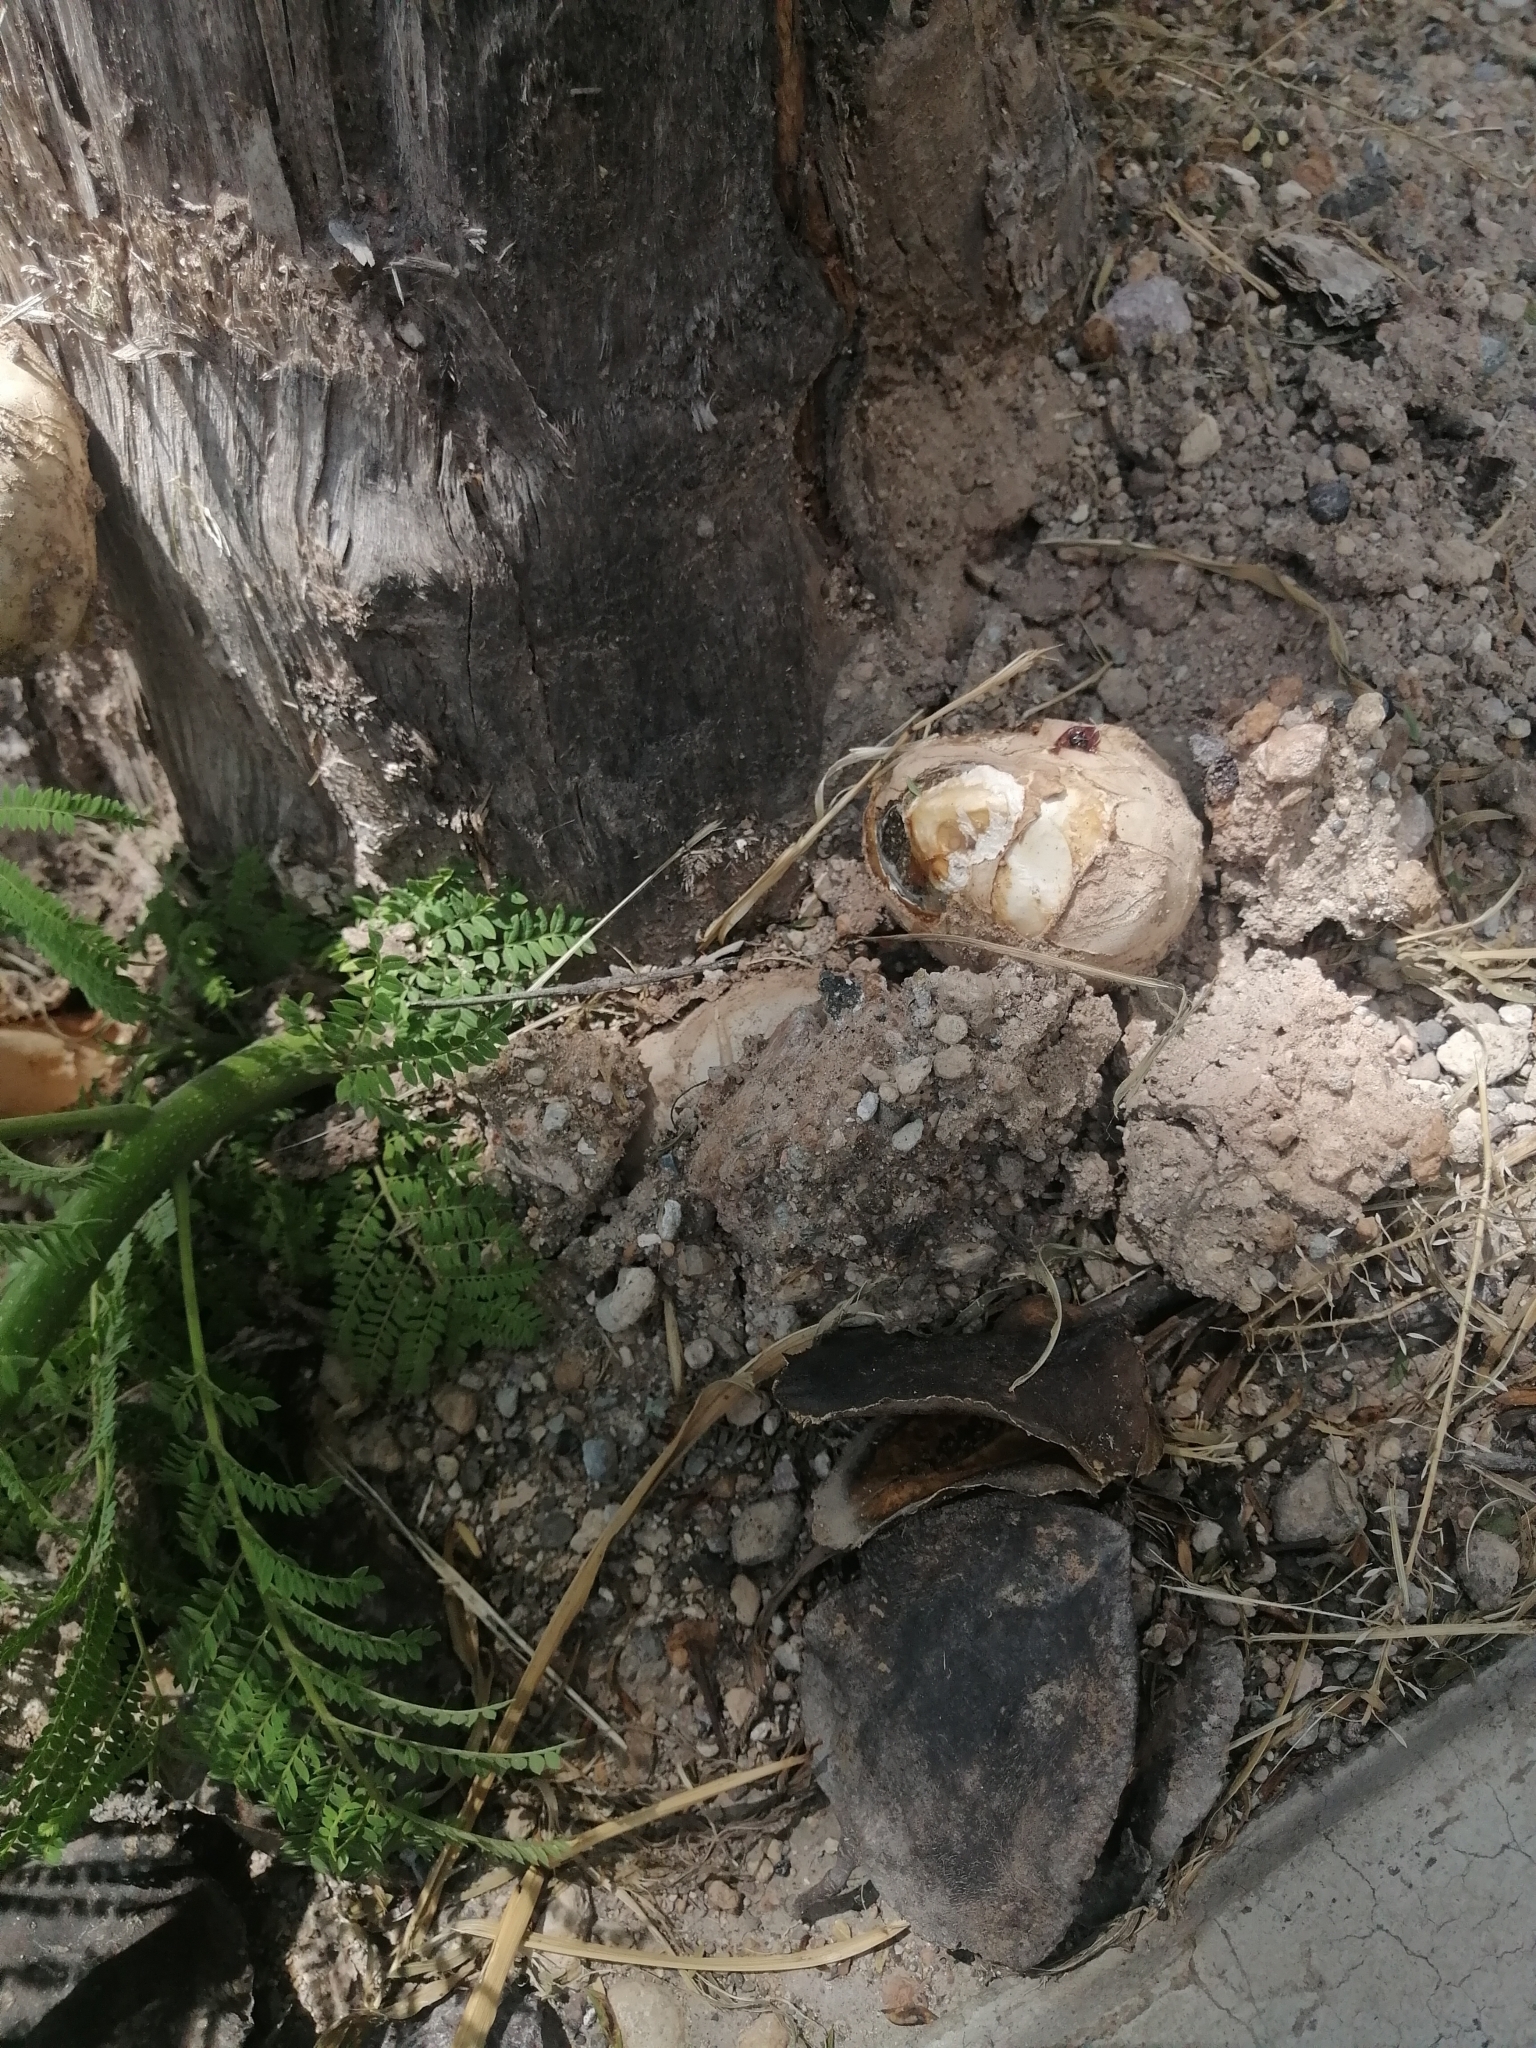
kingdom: Fungi
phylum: Basidiomycota
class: Agaricomycetes
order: Phallales
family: Phallaceae
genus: Itajahya
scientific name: Itajahya galericulata
